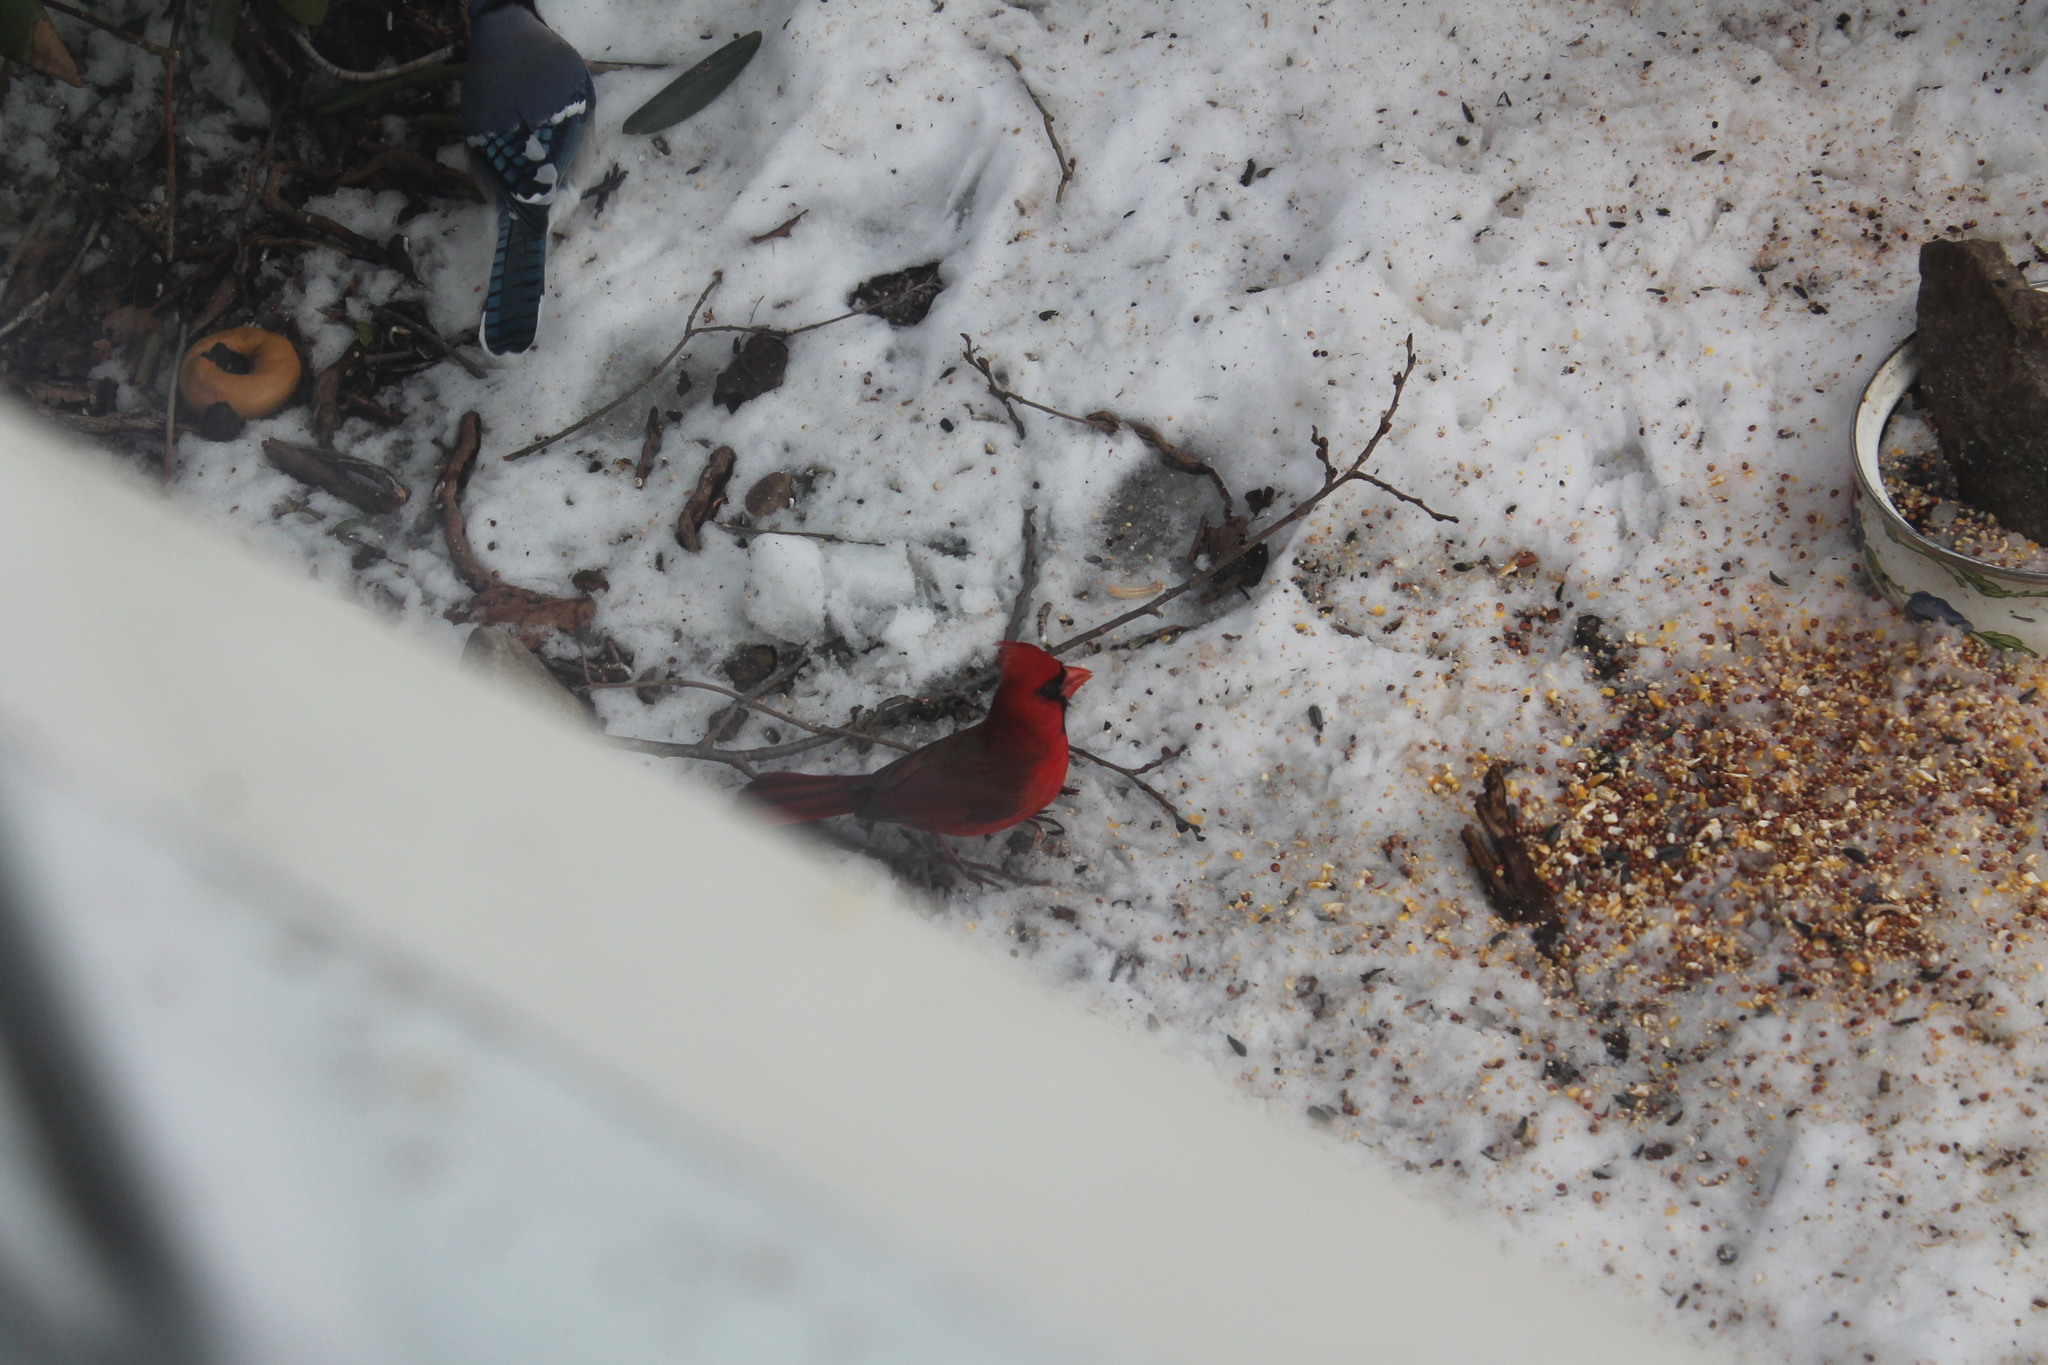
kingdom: Animalia
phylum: Chordata
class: Aves
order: Passeriformes
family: Cardinalidae
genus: Cardinalis
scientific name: Cardinalis cardinalis
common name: Northern cardinal
